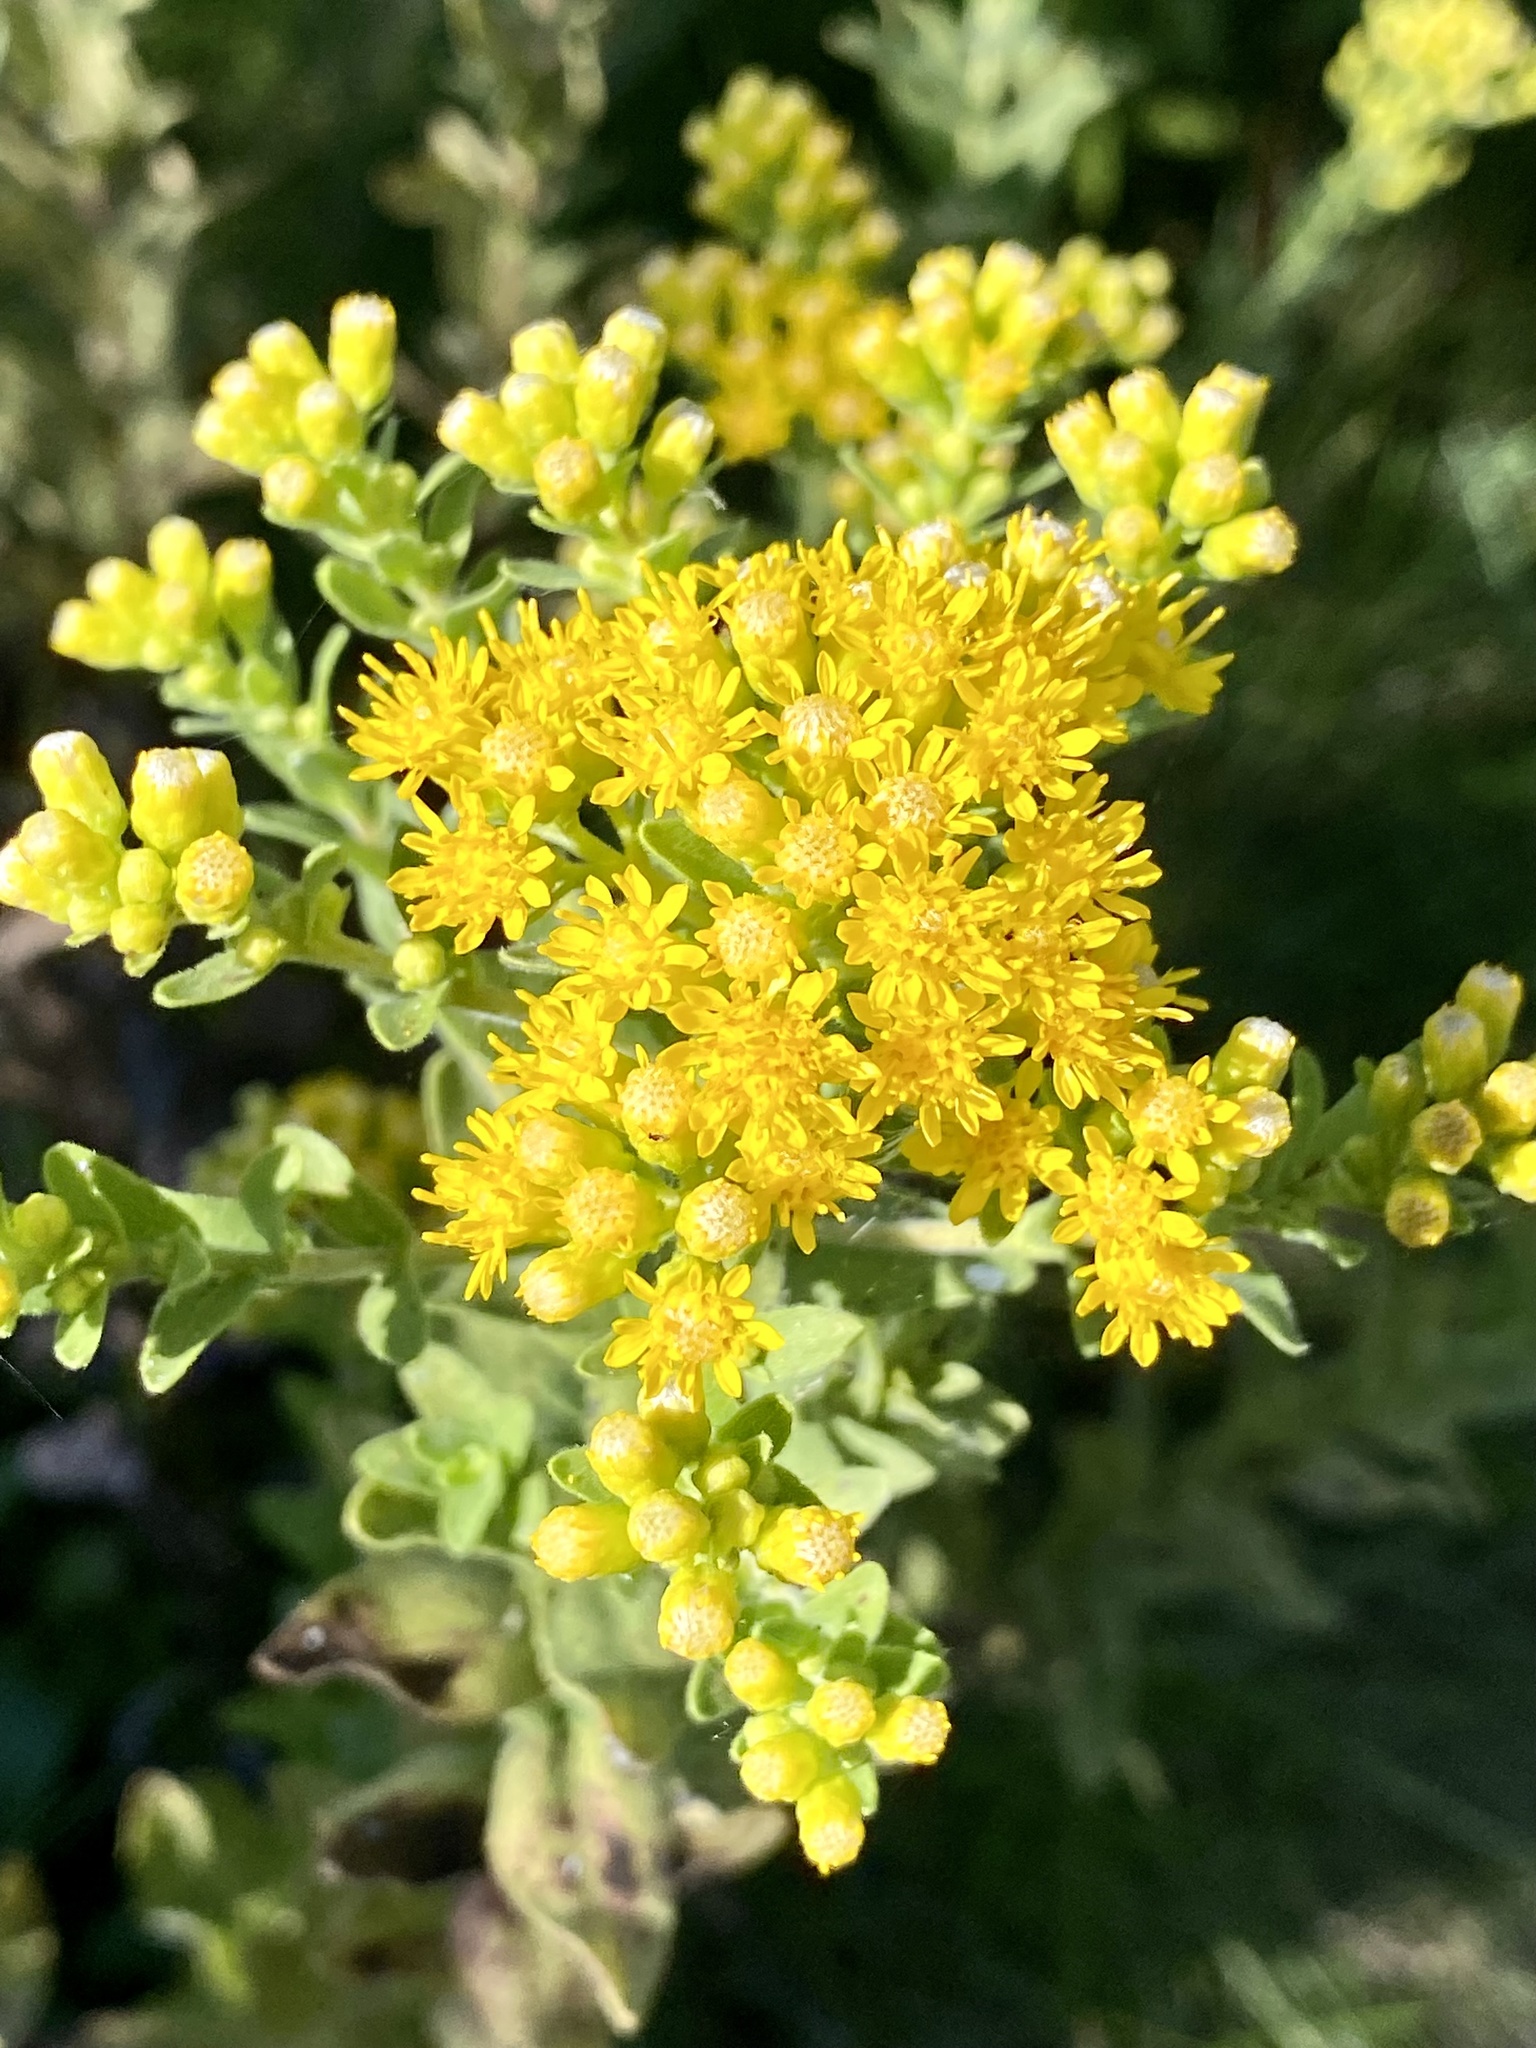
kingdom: Plantae
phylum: Tracheophyta
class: Magnoliopsida
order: Asterales
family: Asteraceae
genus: Solidago
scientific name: Solidago rigida
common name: Rigid goldenrod
